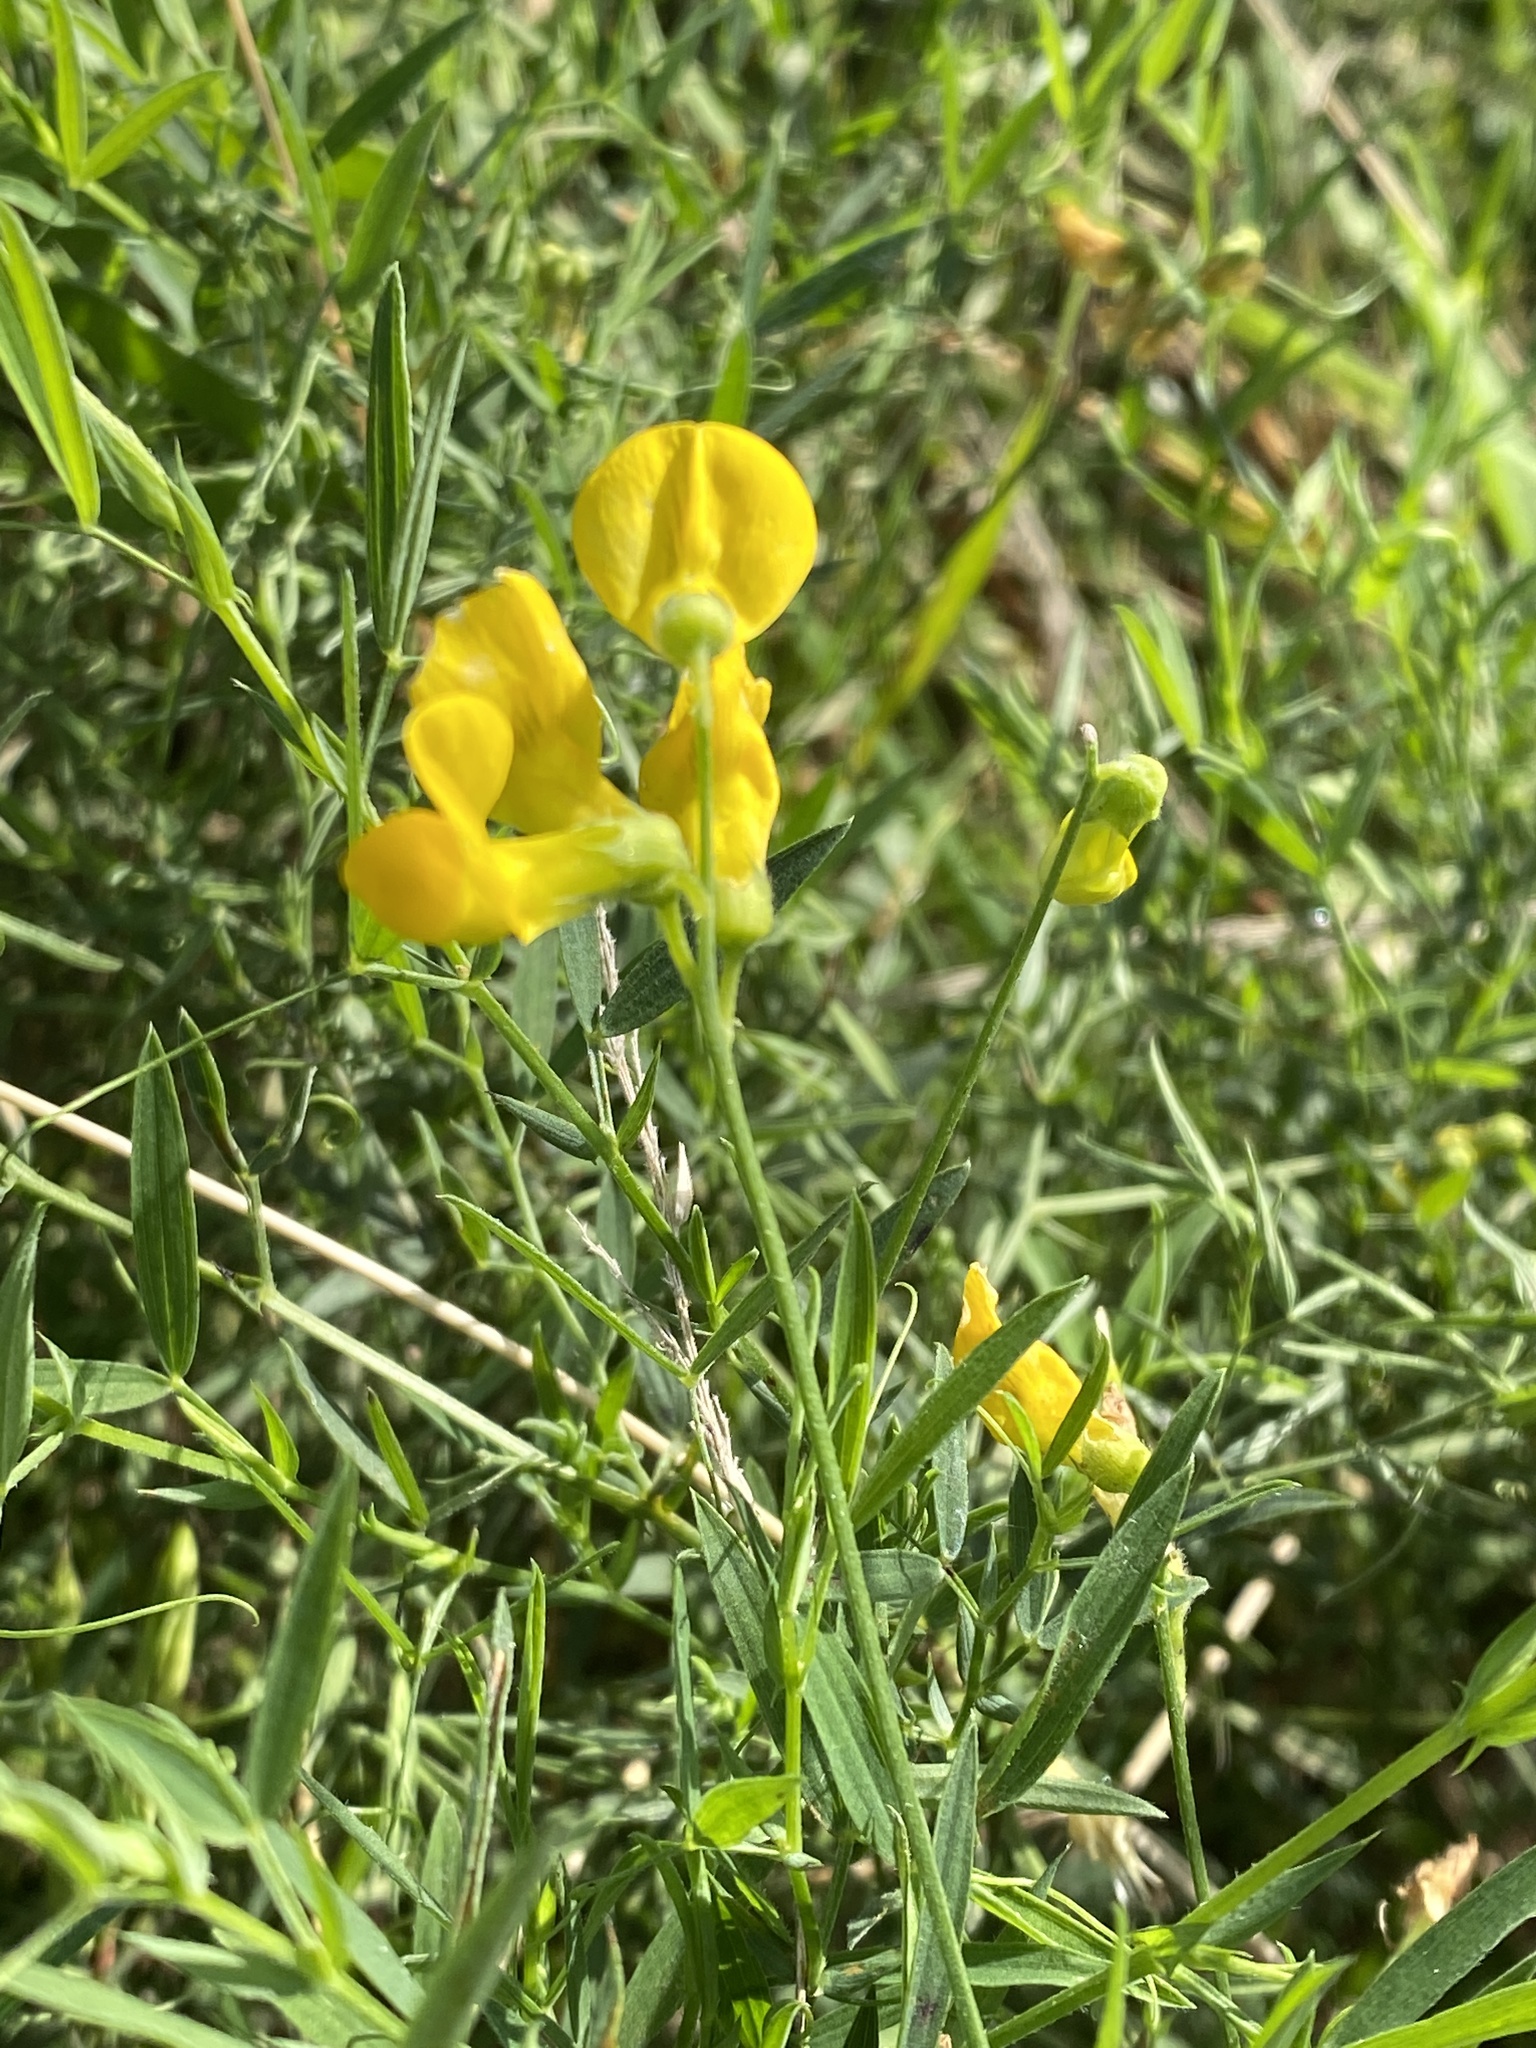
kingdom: Plantae
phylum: Tracheophyta
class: Magnoliopsida
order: Fabales
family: Fabaceae
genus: Lathyrus
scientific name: Lathyrus pratensis
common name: Meadow vetchling
